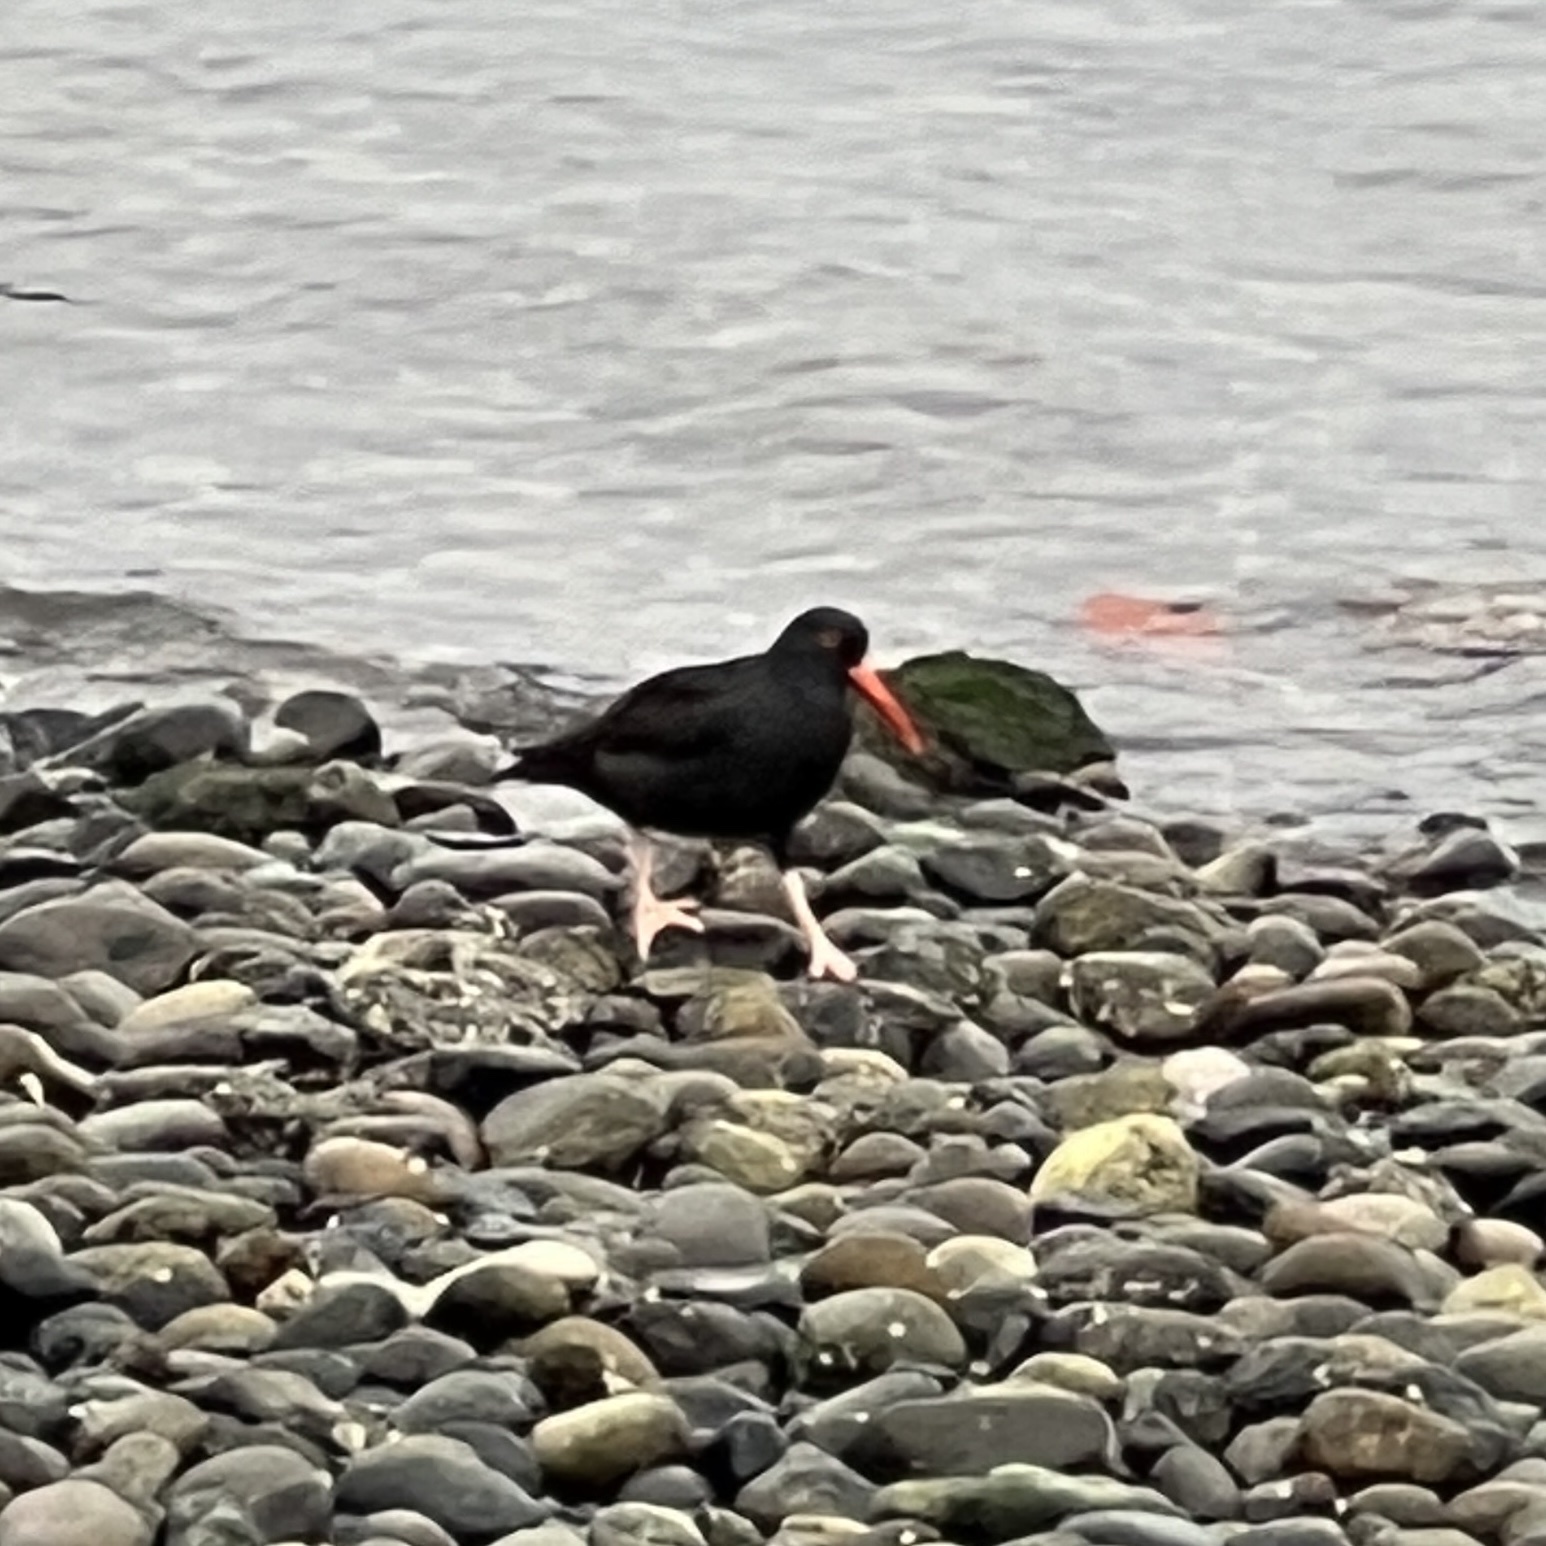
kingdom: Animalia
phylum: Chordata
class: Aves
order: Charadriiformes
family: Haematopodidae
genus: Haematopus
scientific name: Haematopus bachmani
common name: Black oystercatcher
